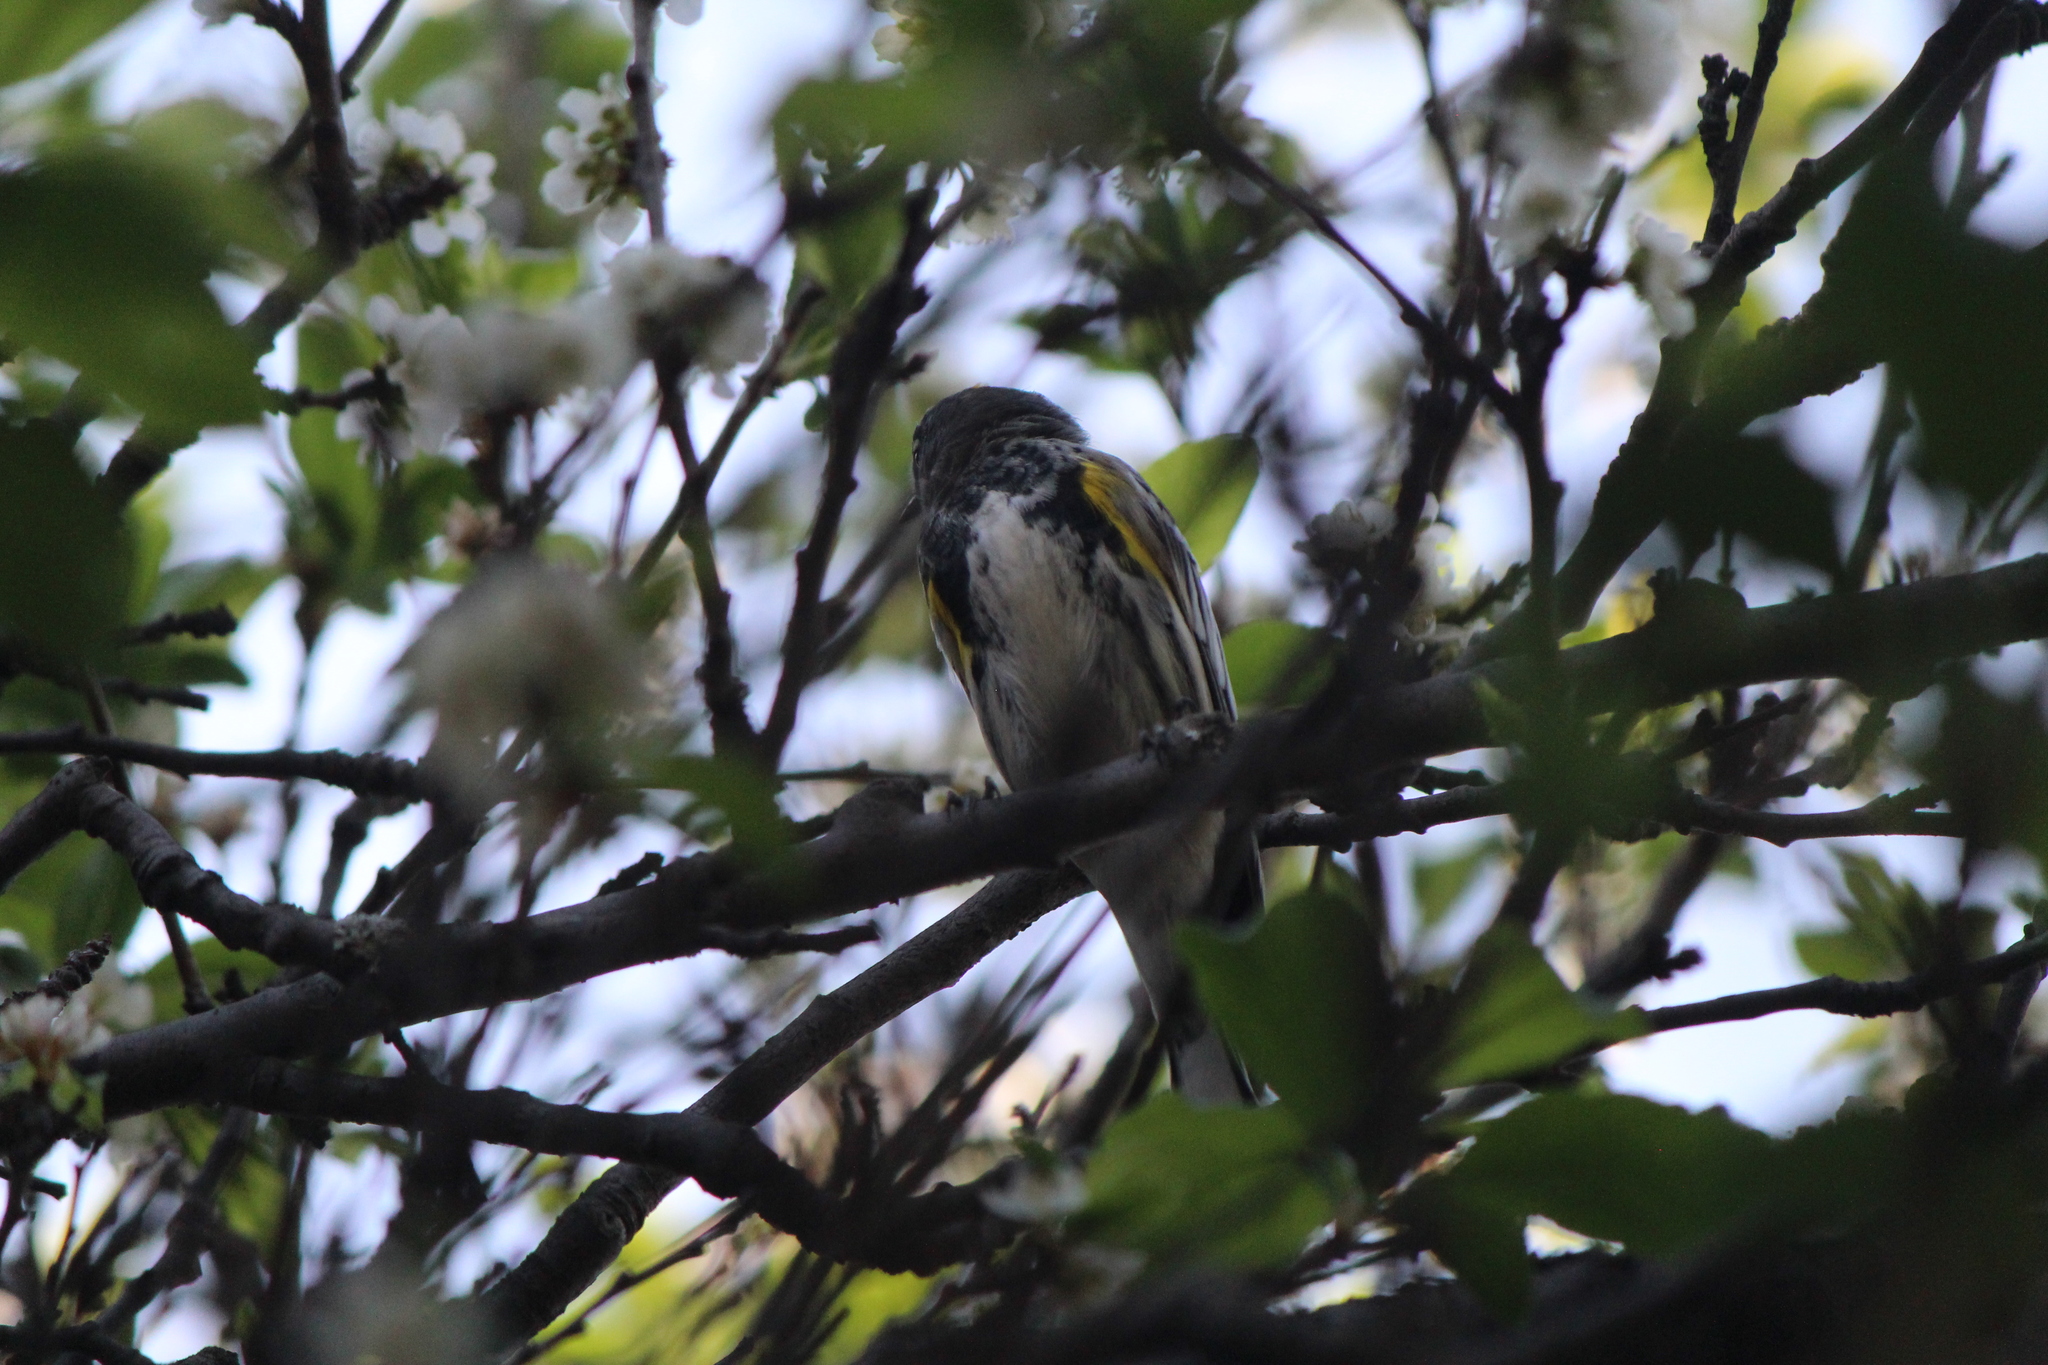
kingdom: Animalia
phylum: Chordata
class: Aves
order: Passeriformes
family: Parulidae
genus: Setophaga
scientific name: Setophaga coronata
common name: Myrtle warbler
